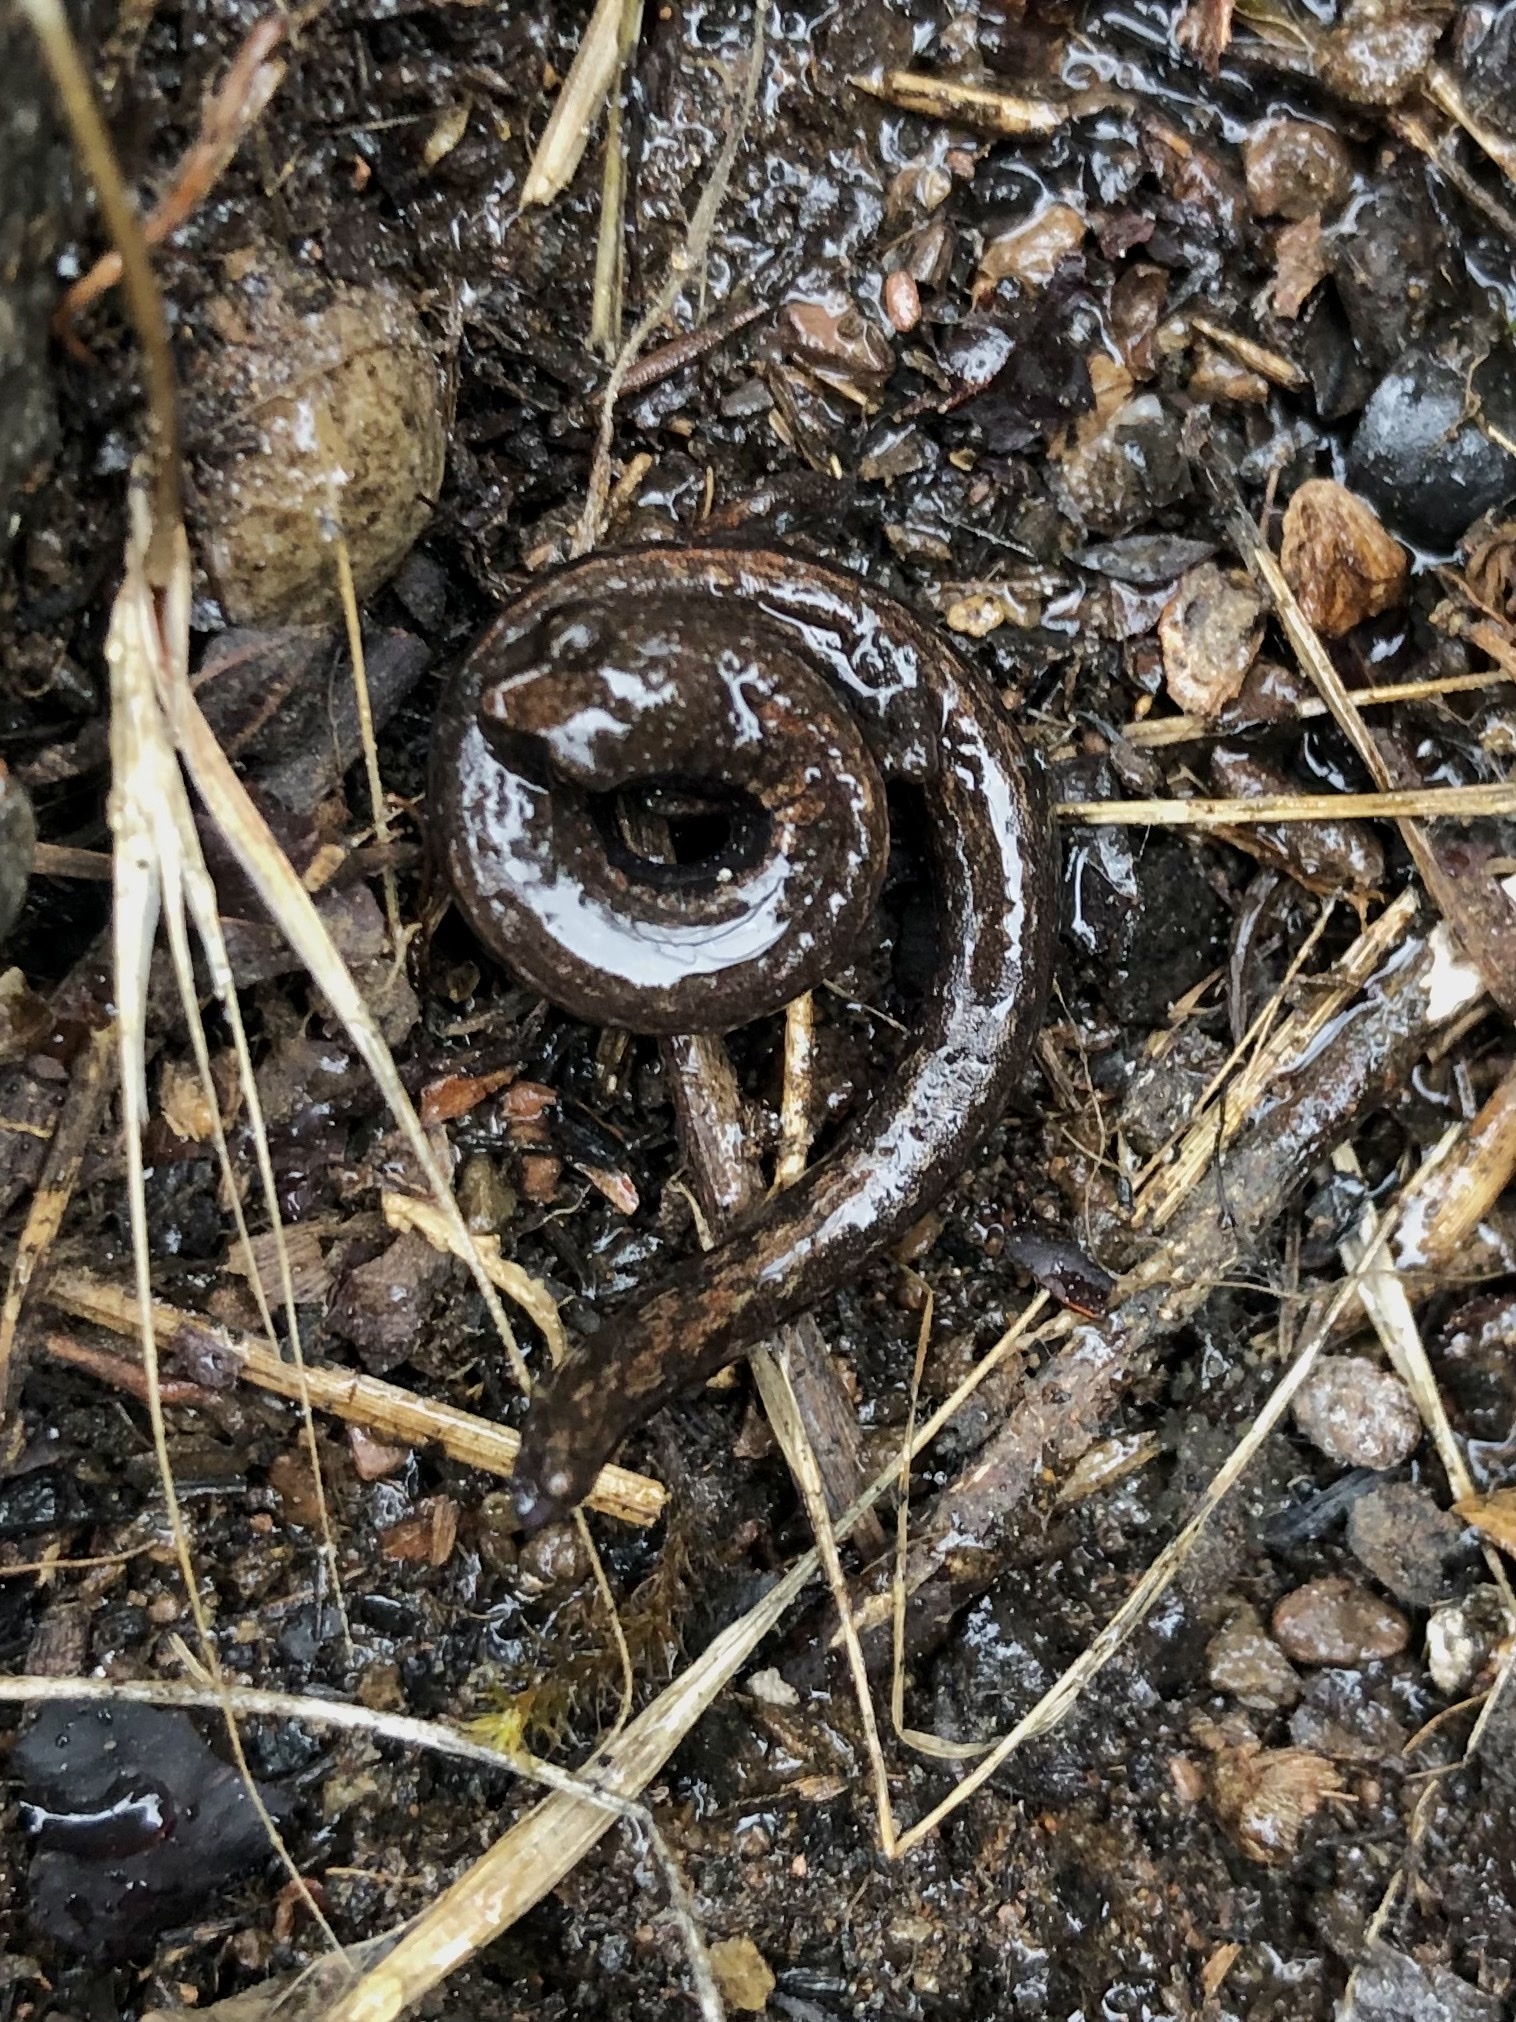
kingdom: Animalia
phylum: Chordata
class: Amphibia
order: Caudata
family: Plethodontidae
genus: Batrachoseps
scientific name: Batrachoseps diabolicus
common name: Hell hollow slender salamander
